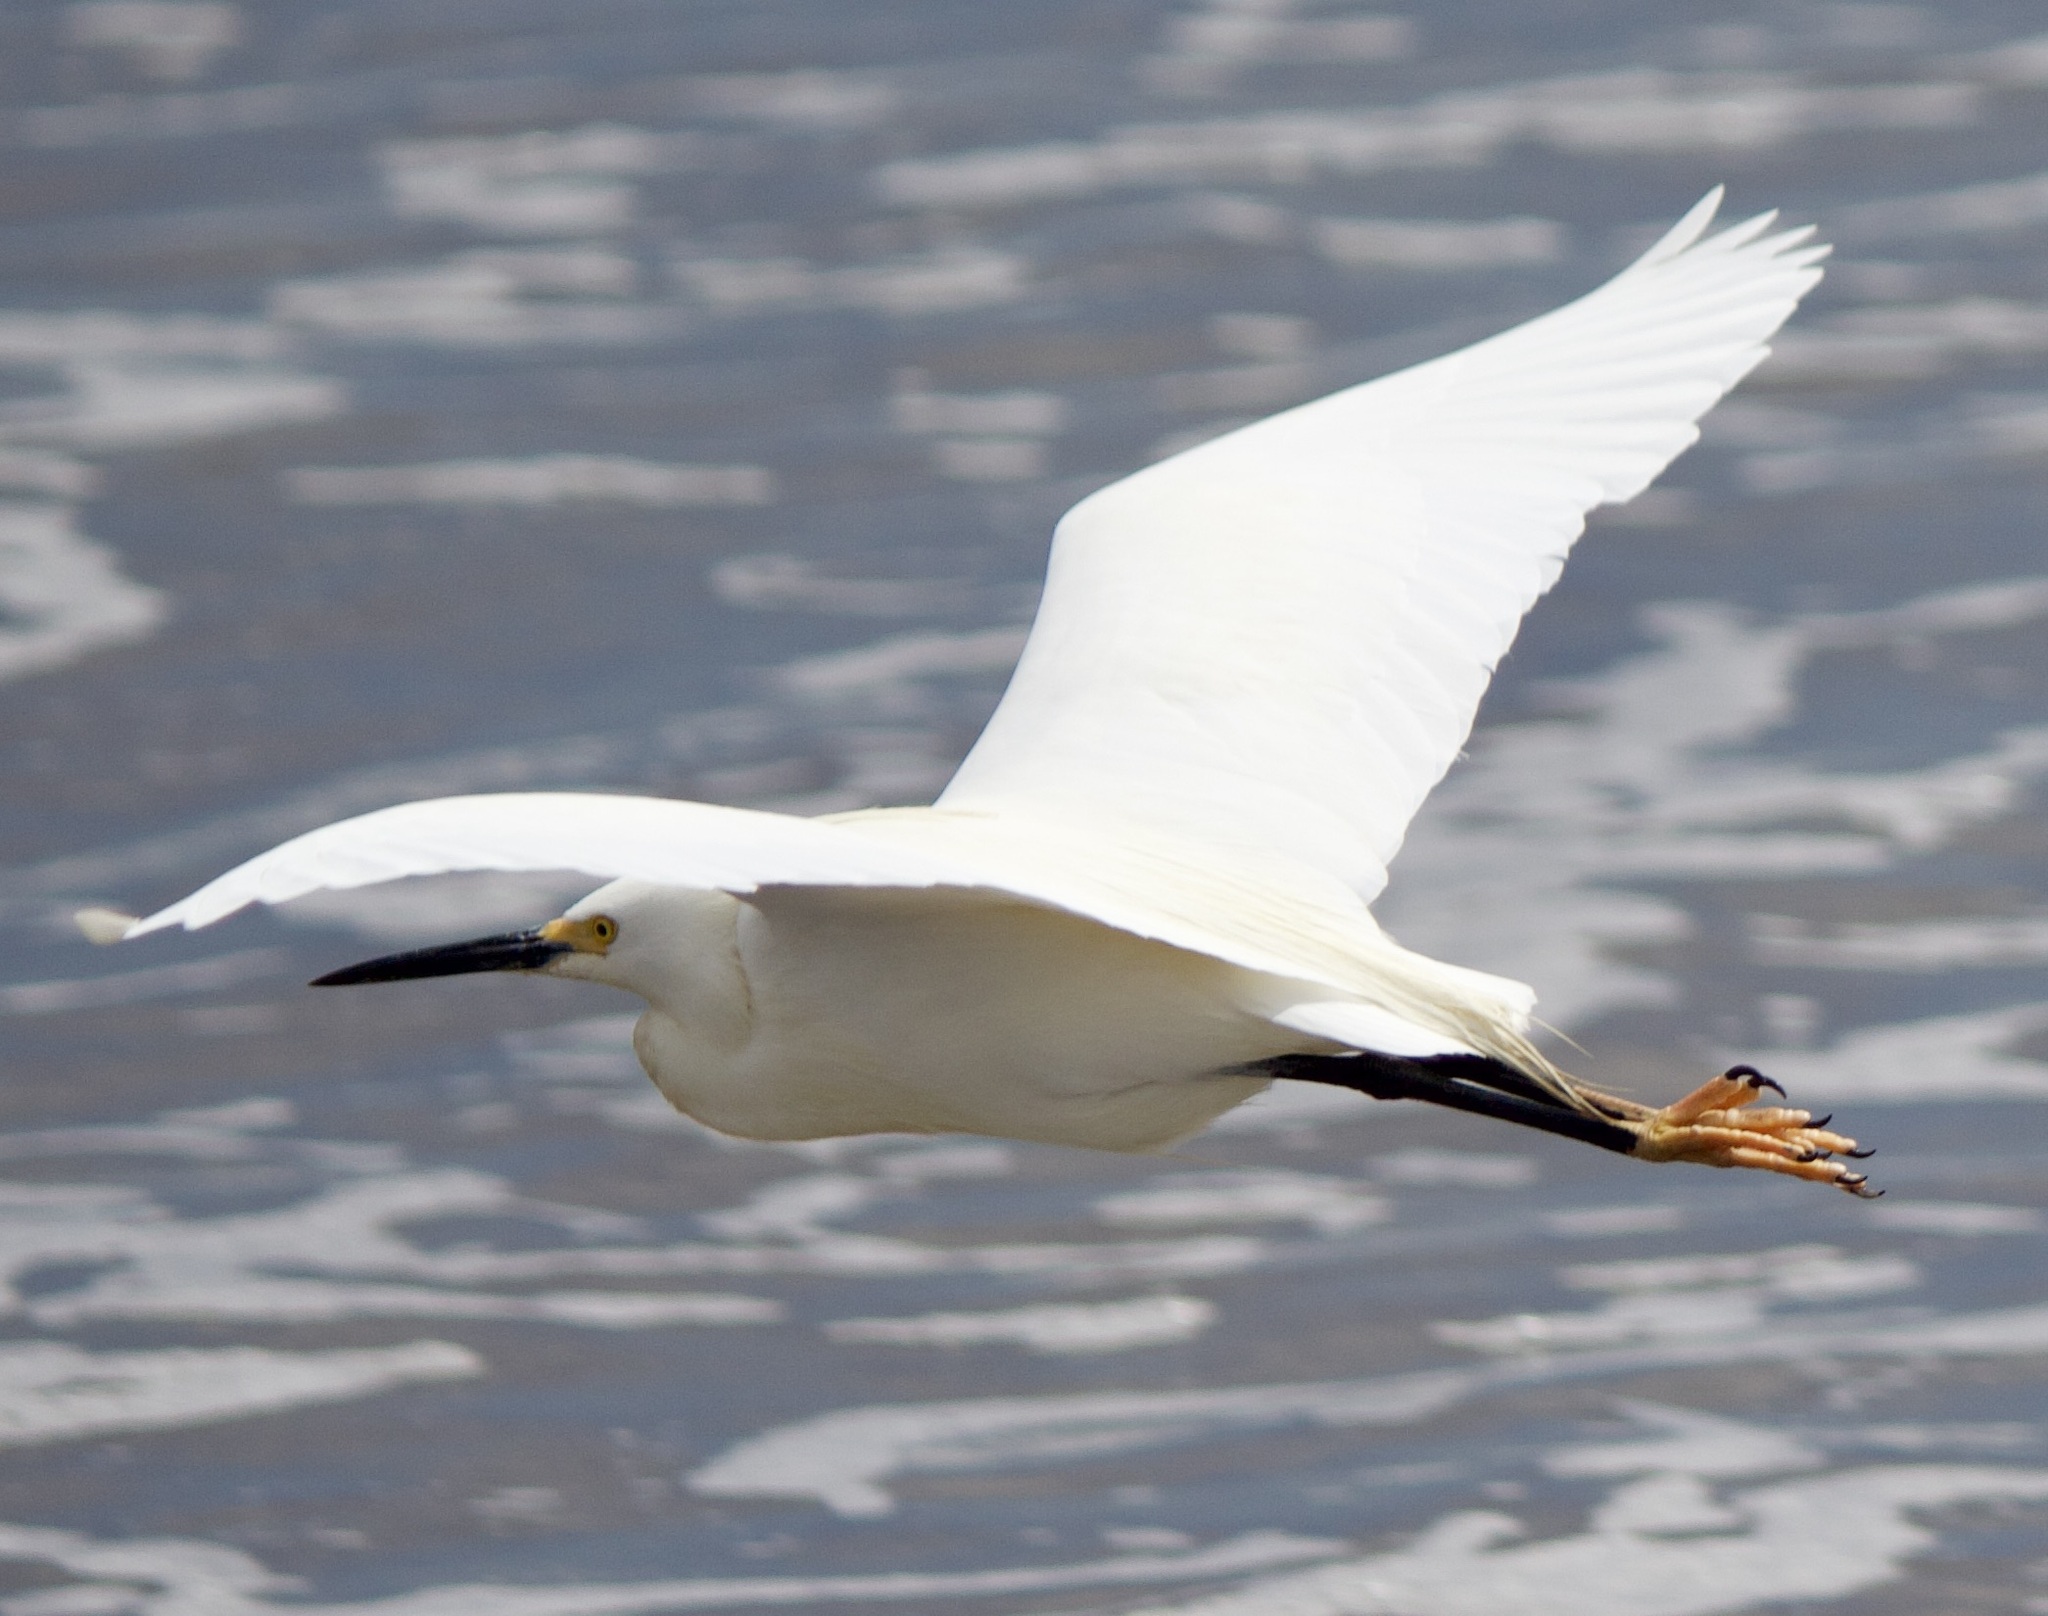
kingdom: Animalia
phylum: Chordata
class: Aves
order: Pelecaniformes
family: Ardeidae
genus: Egretta
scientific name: Egretta thula
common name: Snowy egret
